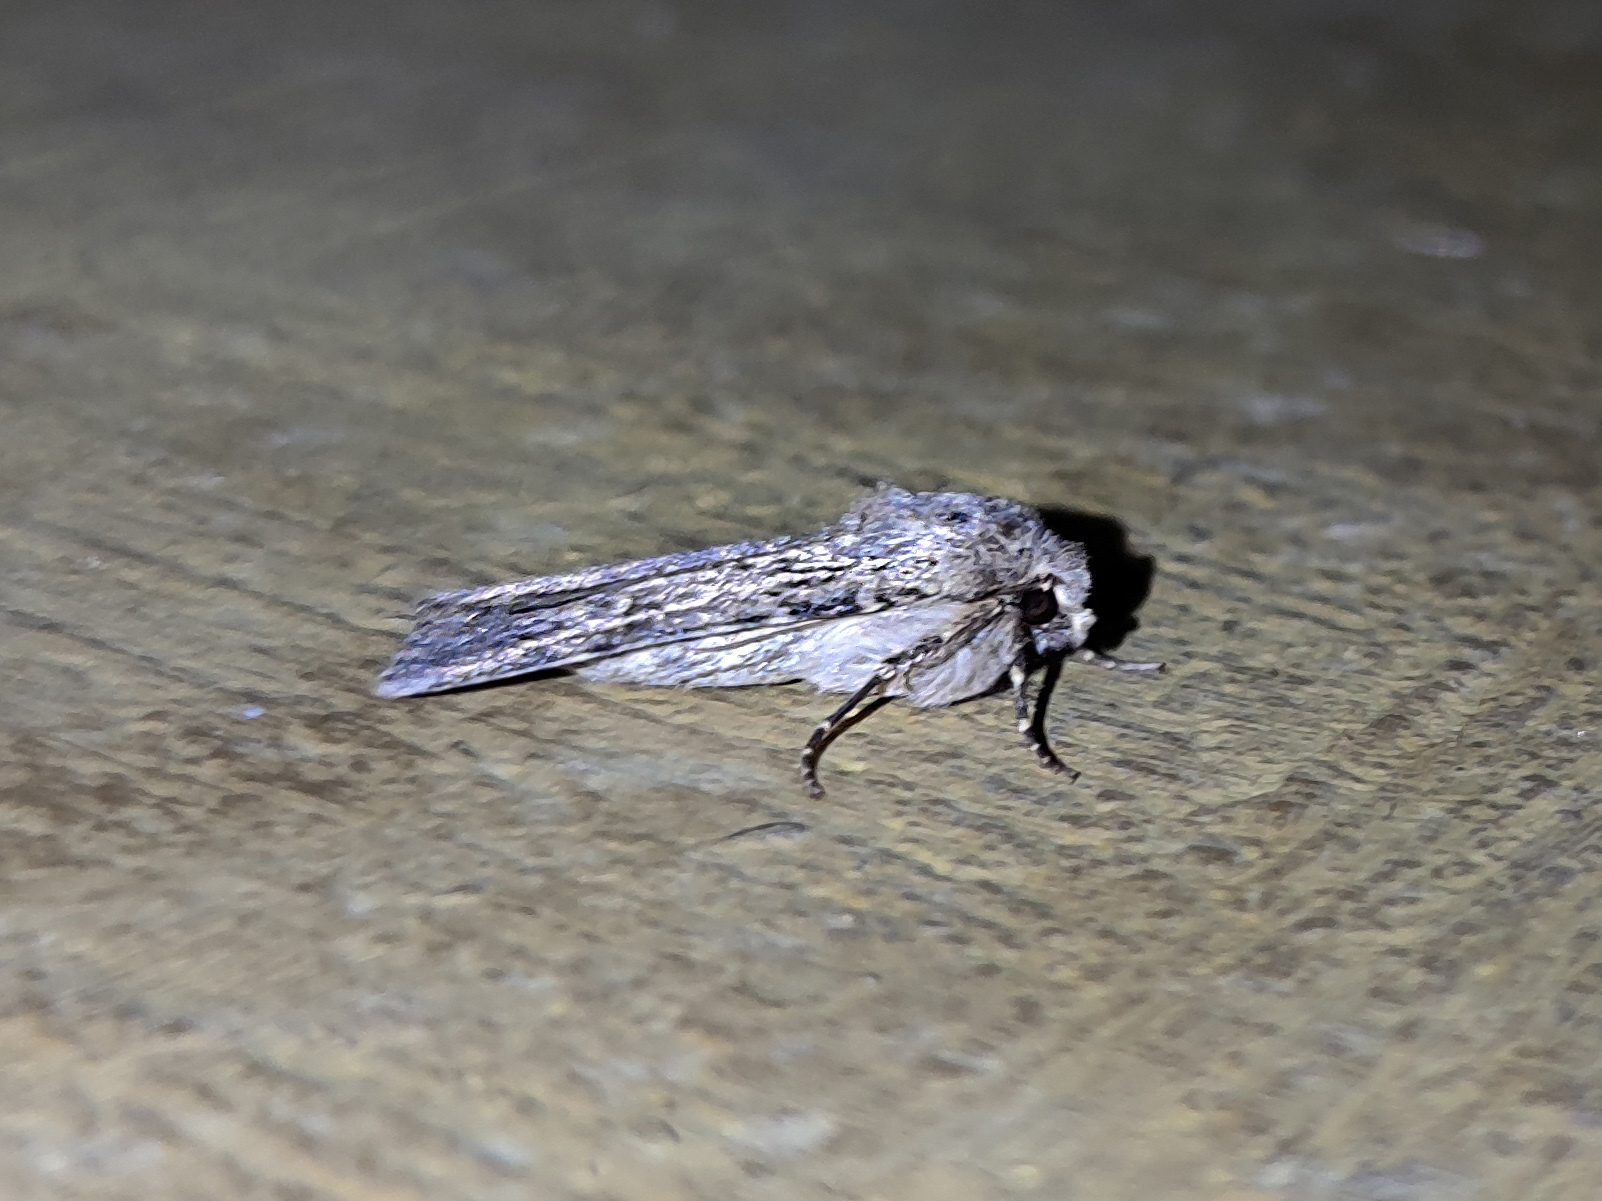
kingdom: Animalia
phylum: Arthropoda
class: Insecta
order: Lepidoptera
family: Noctuidae
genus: Rhyacia
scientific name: Rhyacia simulans
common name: Dotted rustic
